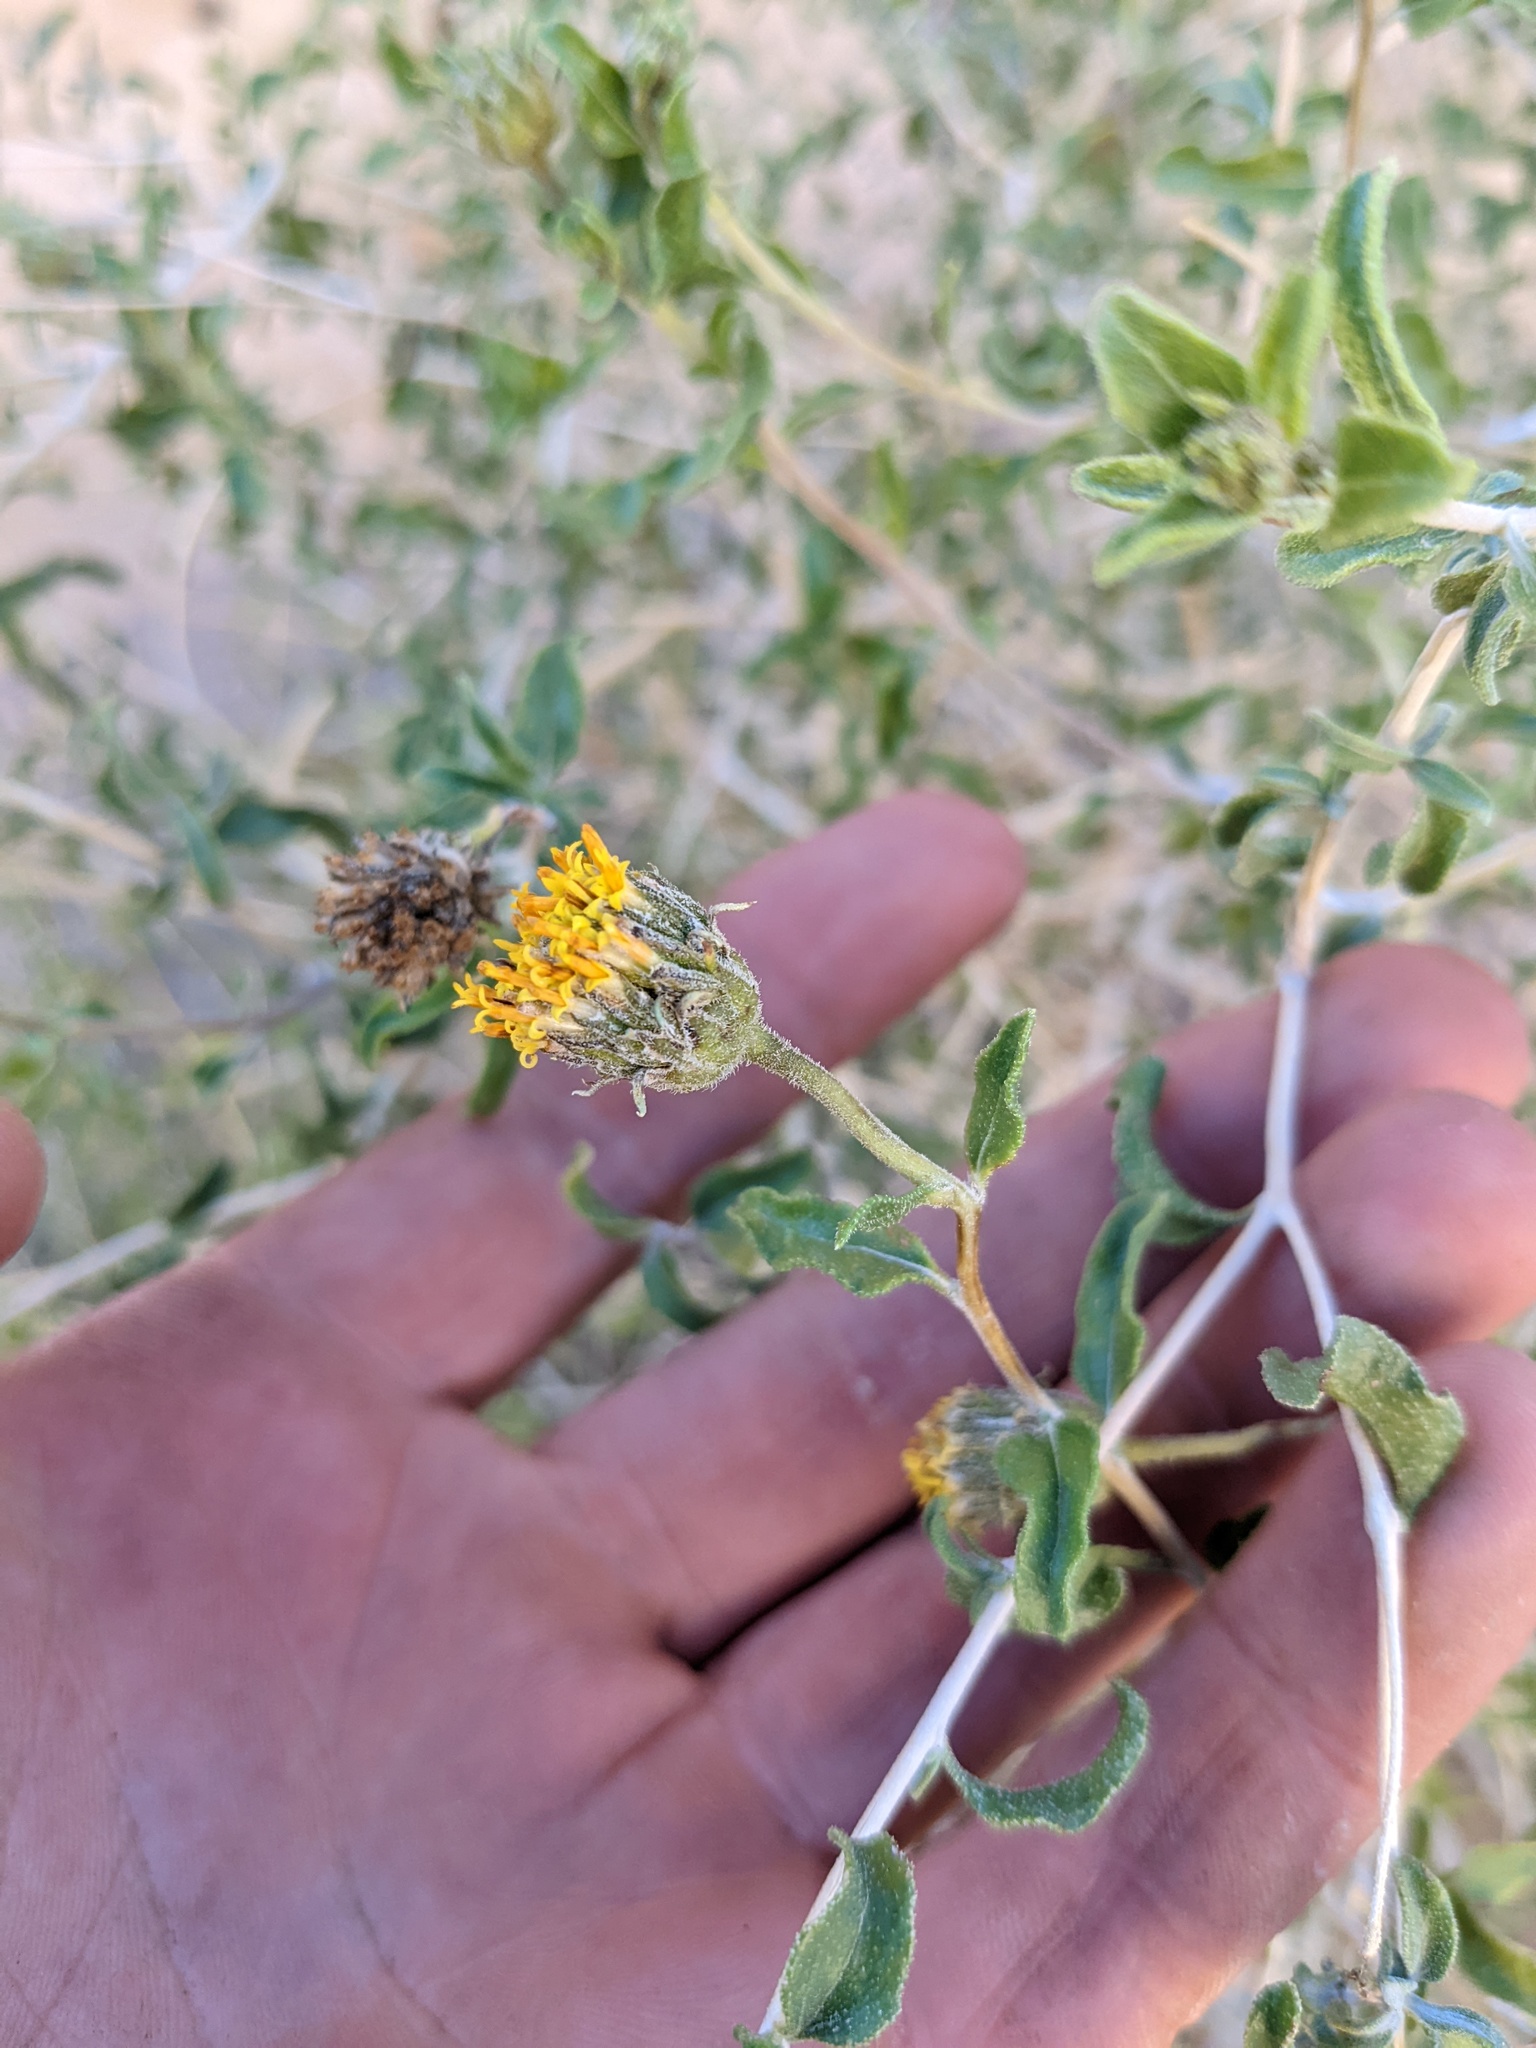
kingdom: Plantae
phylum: Tracheophyta
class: Magnoliopsida
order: Asterales
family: Asteraceae
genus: Encelia
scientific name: Encelia frutescens
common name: Bush encelia
